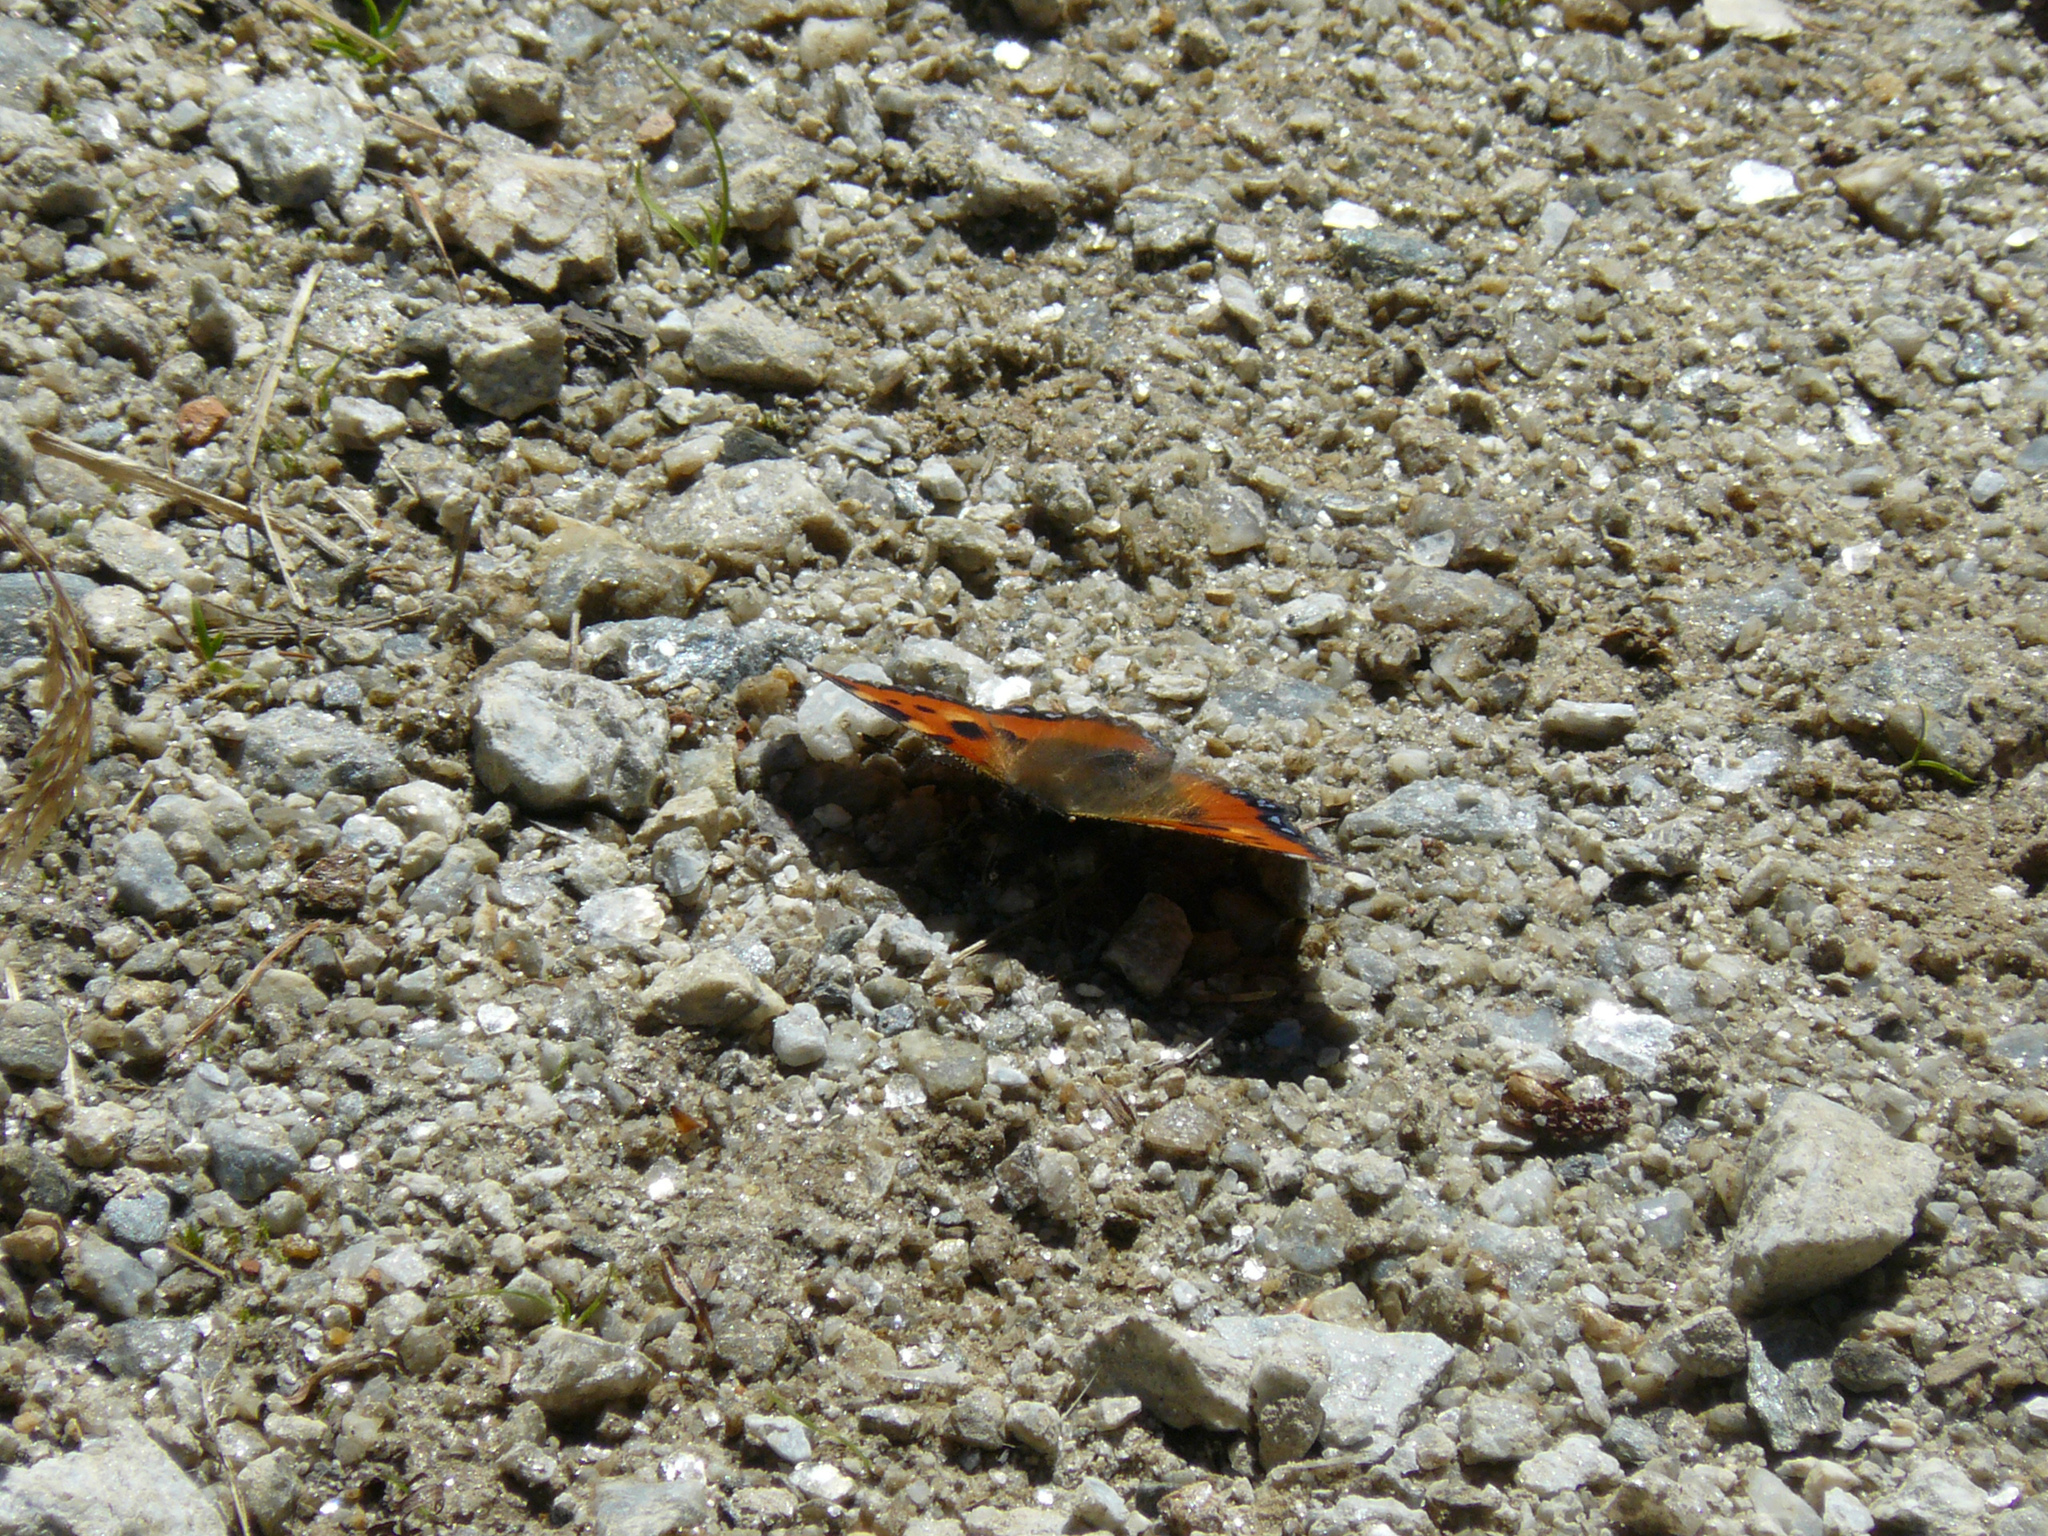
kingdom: Animalia
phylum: Arthropoda
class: Insecta
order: Lepidoptera
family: Nymphalidae
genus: Aglais
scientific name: Aglais urticae
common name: Small tortoiseshell
